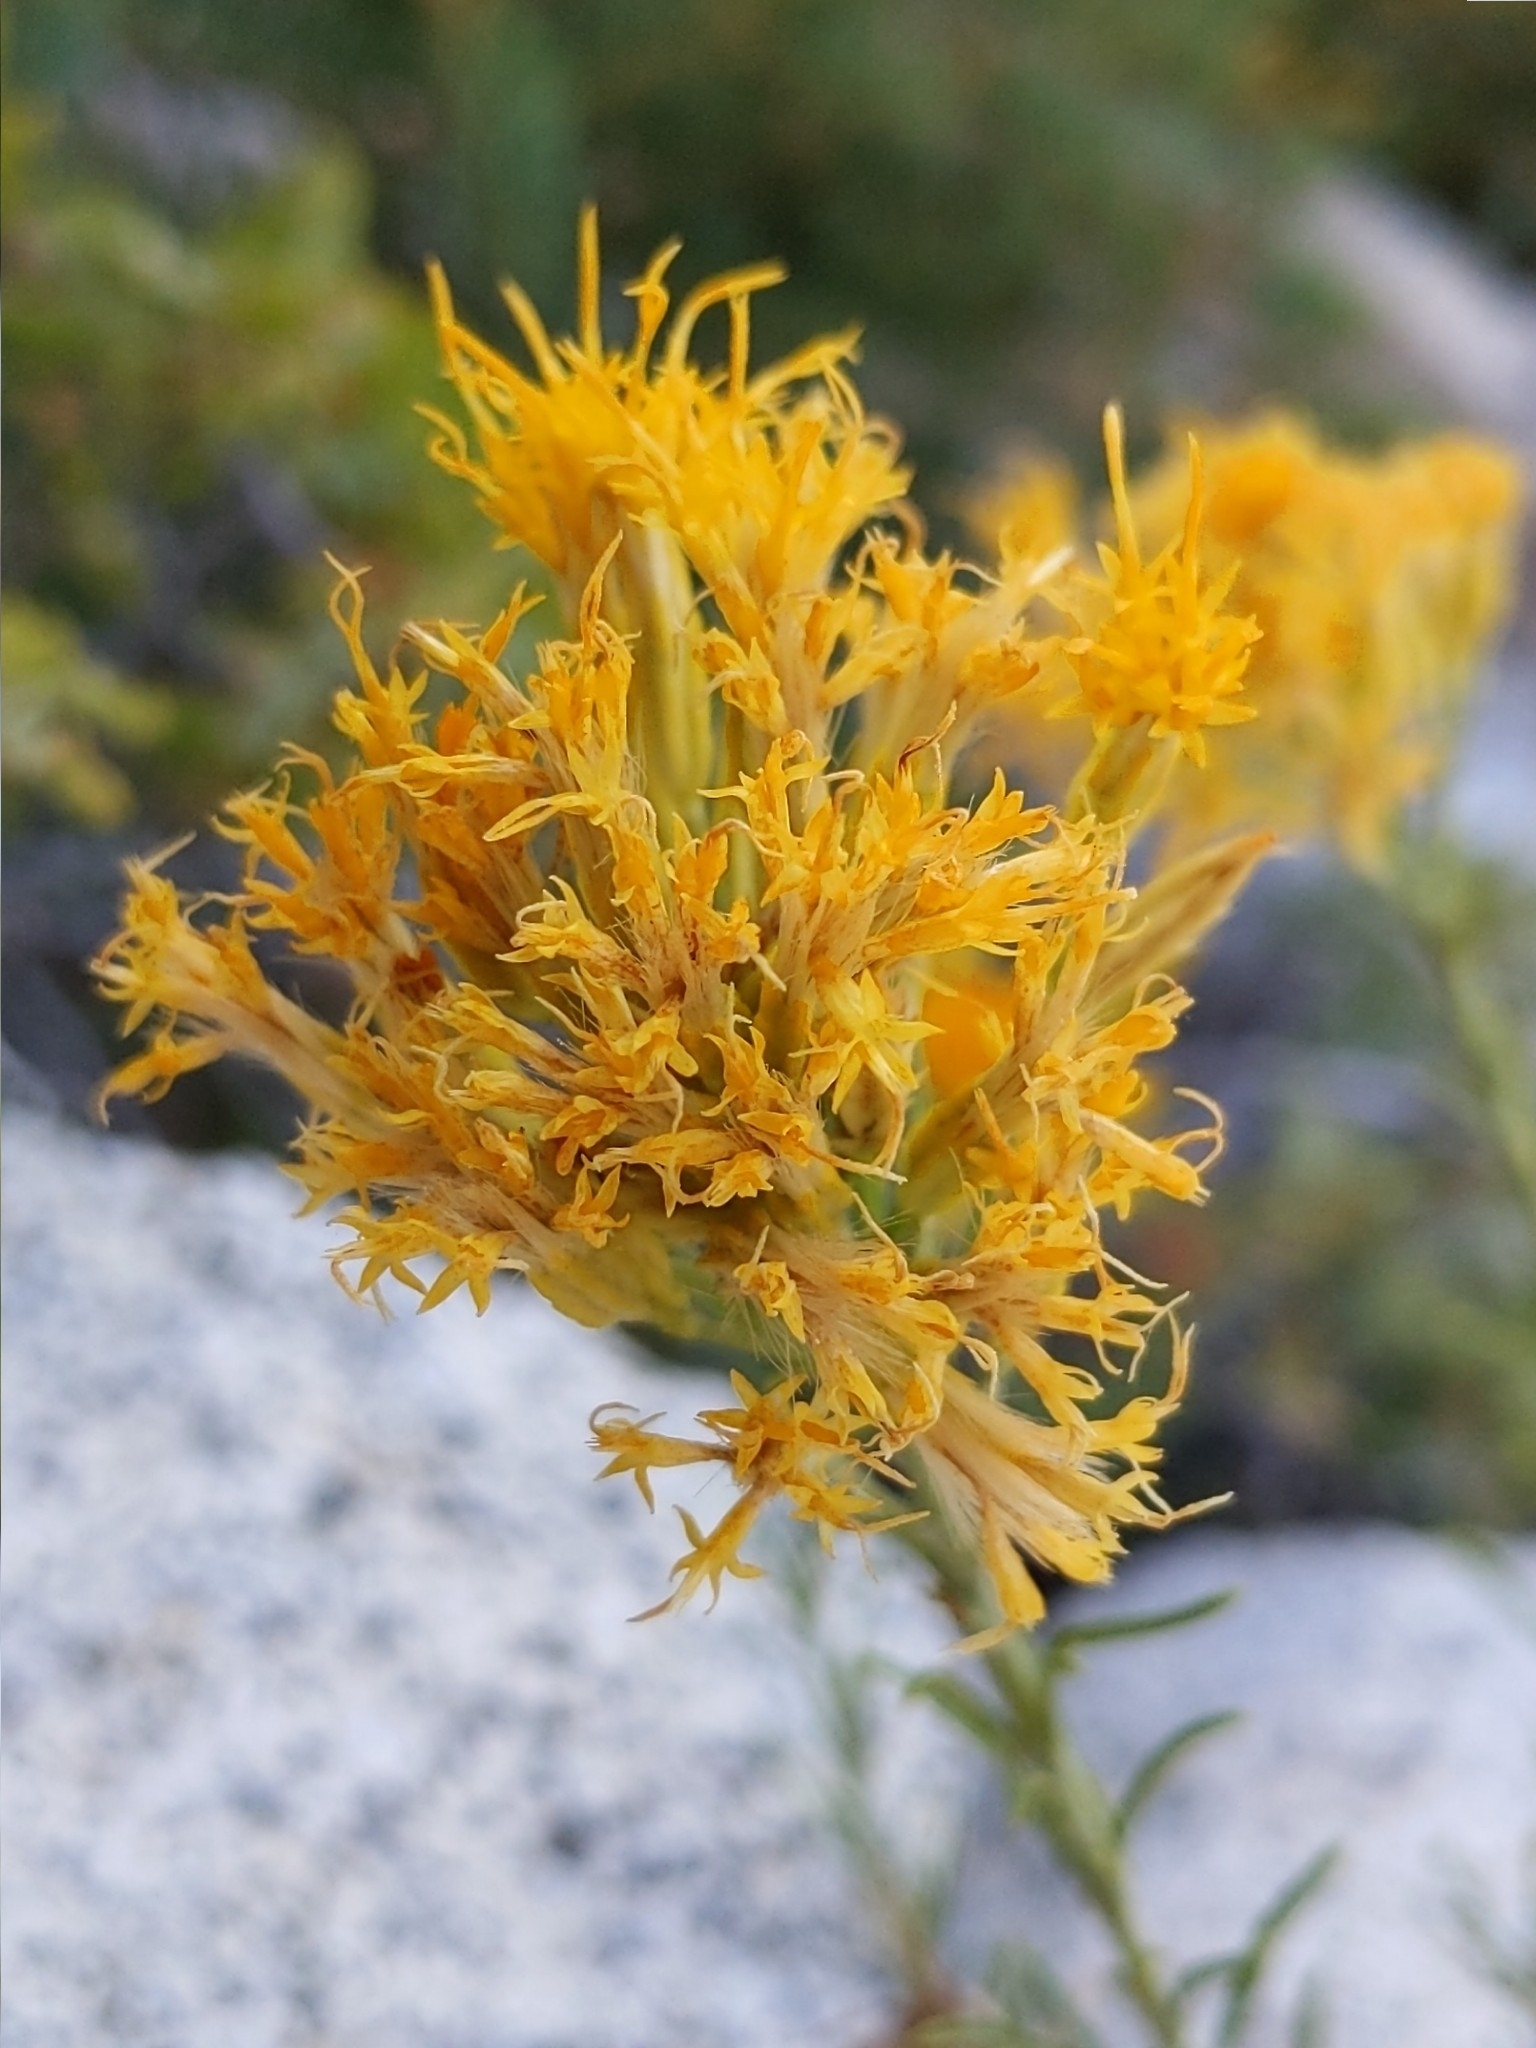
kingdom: Plantae
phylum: Tracheophyta
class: Magnoliopsida
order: Asterales
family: Asteraceae
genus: Ericameria
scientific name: Ericameria nauseosa
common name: Rubber rabbitbrush
